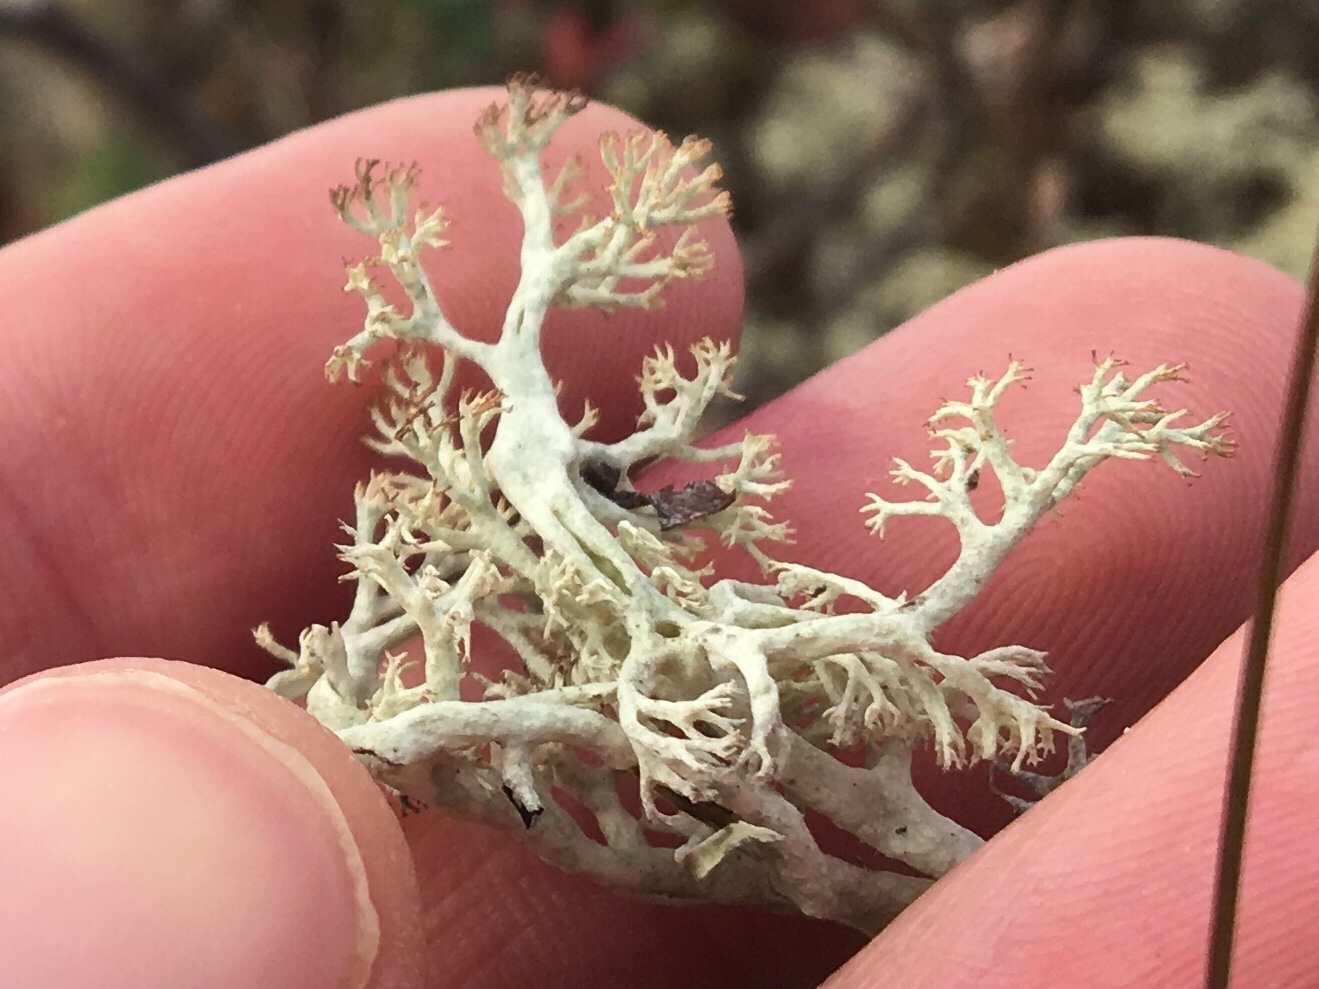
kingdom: Fungi
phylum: Ascomycota
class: Lecanoromycetes
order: Lecanorales
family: Cladoniaceae
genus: Cladonia
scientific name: Cladonia arbuscula
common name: Reindeer lichen
